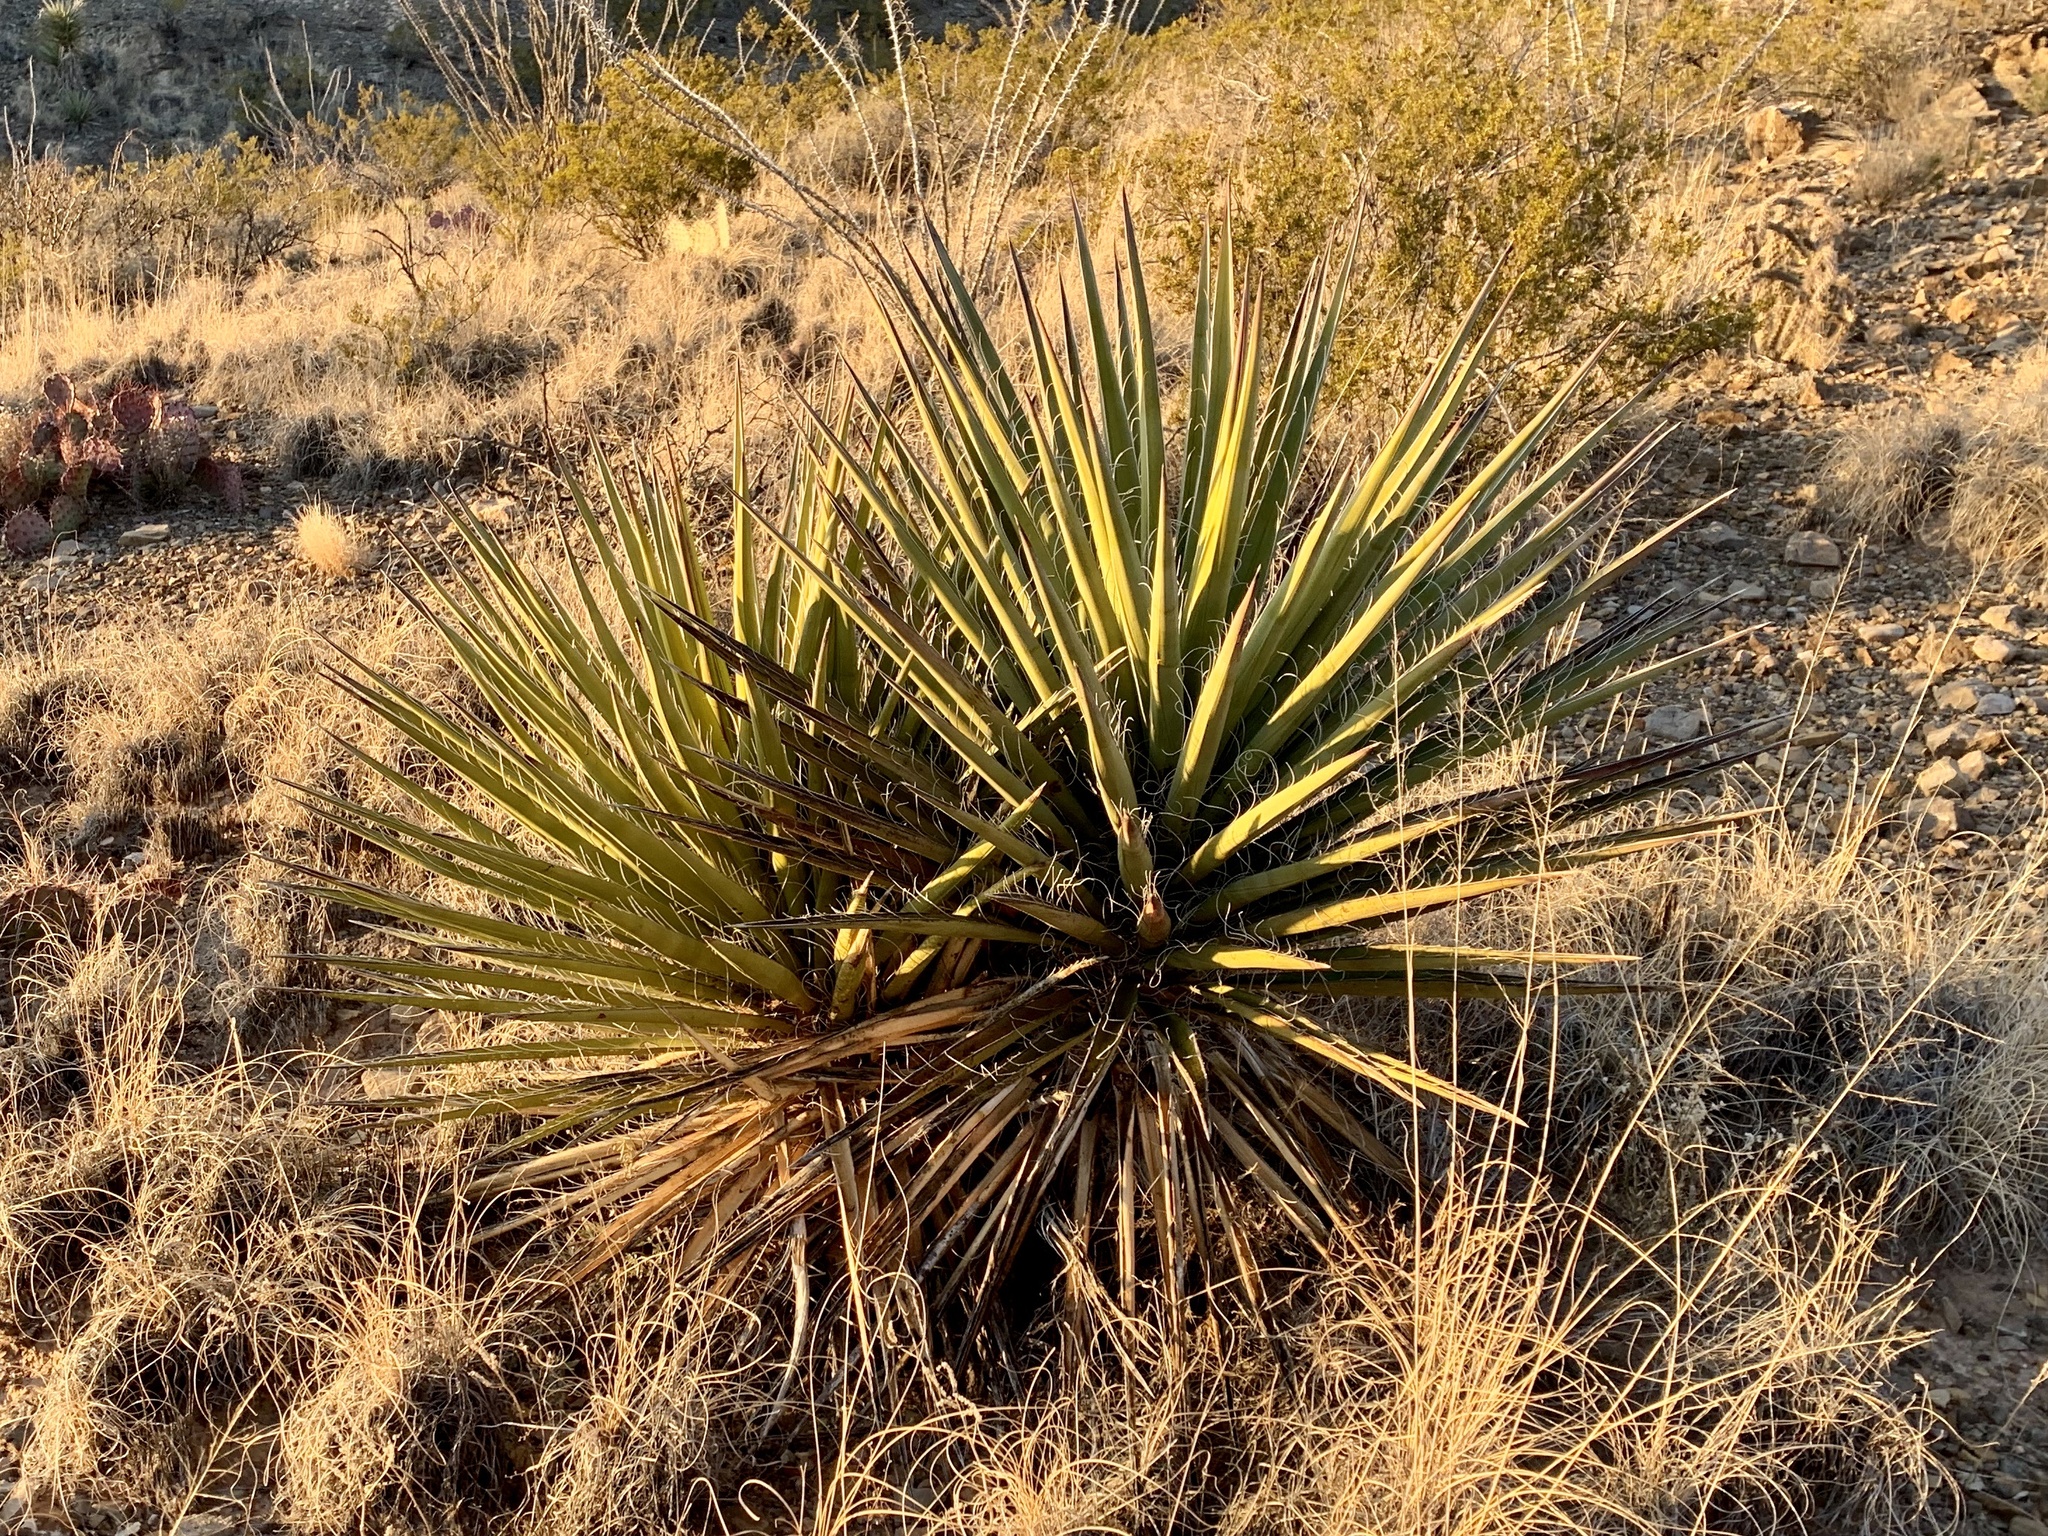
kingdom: Plantae
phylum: Tracheophyta
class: Liliopsida
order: Asparagales
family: Asparagaceae
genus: Yucca
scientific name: Yucca treculiana
